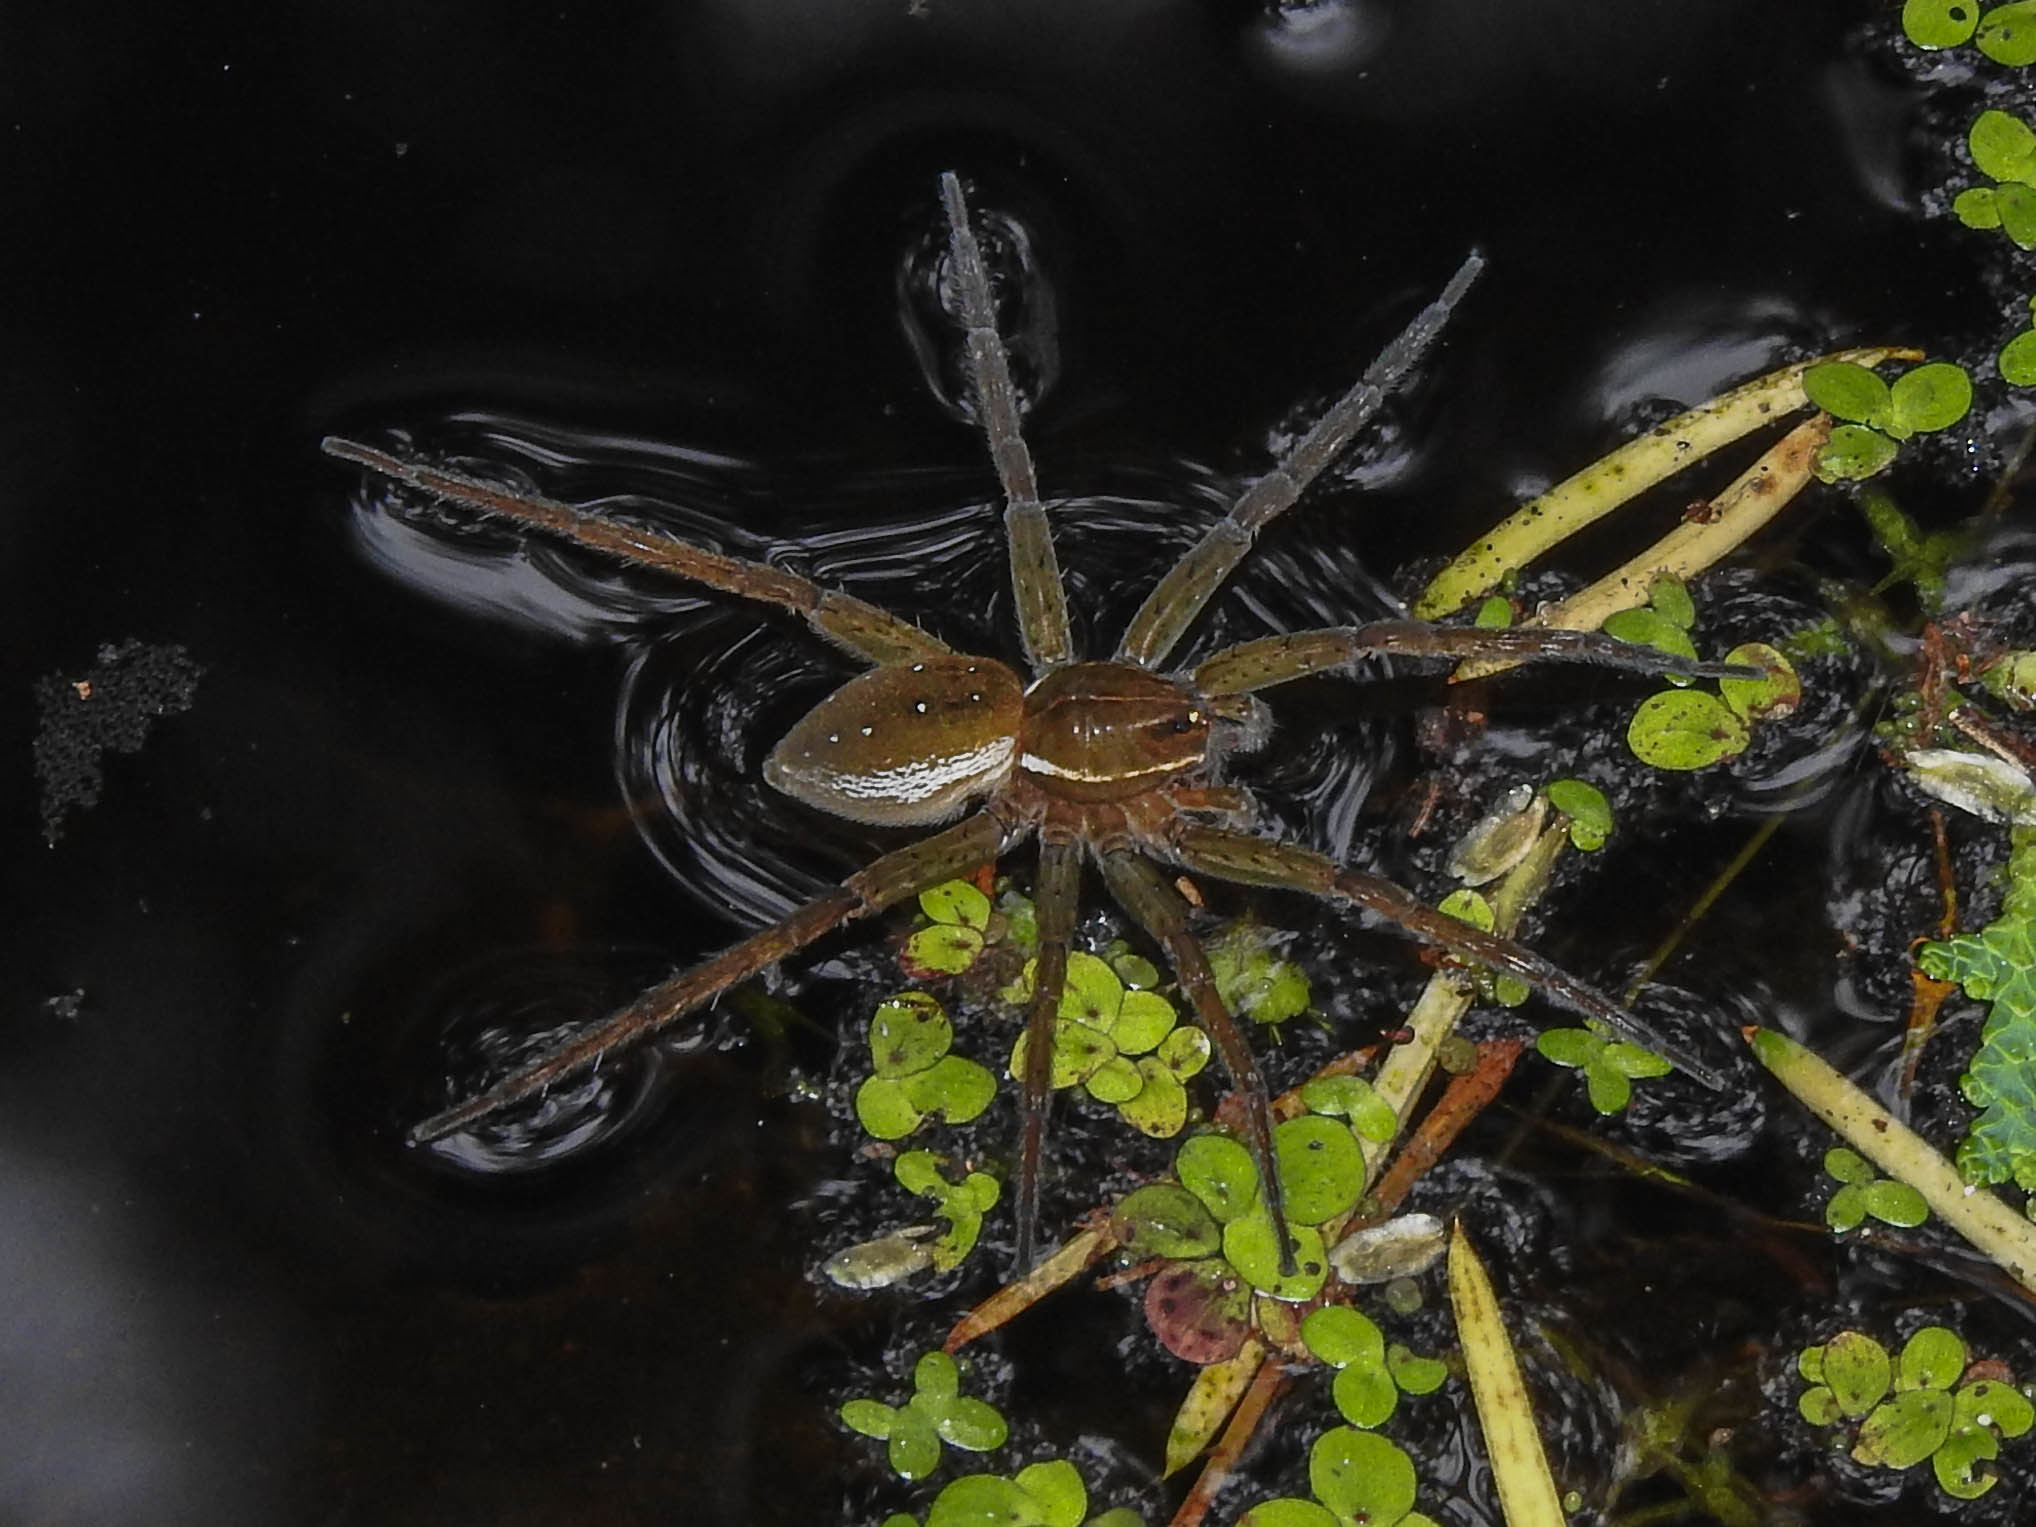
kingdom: Animalia
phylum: Arthropoda
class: Arachnida
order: Araneae
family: Pisauridae
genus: Dolomedes
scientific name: Dolomedes triton
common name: Six-spotted fishing spider
